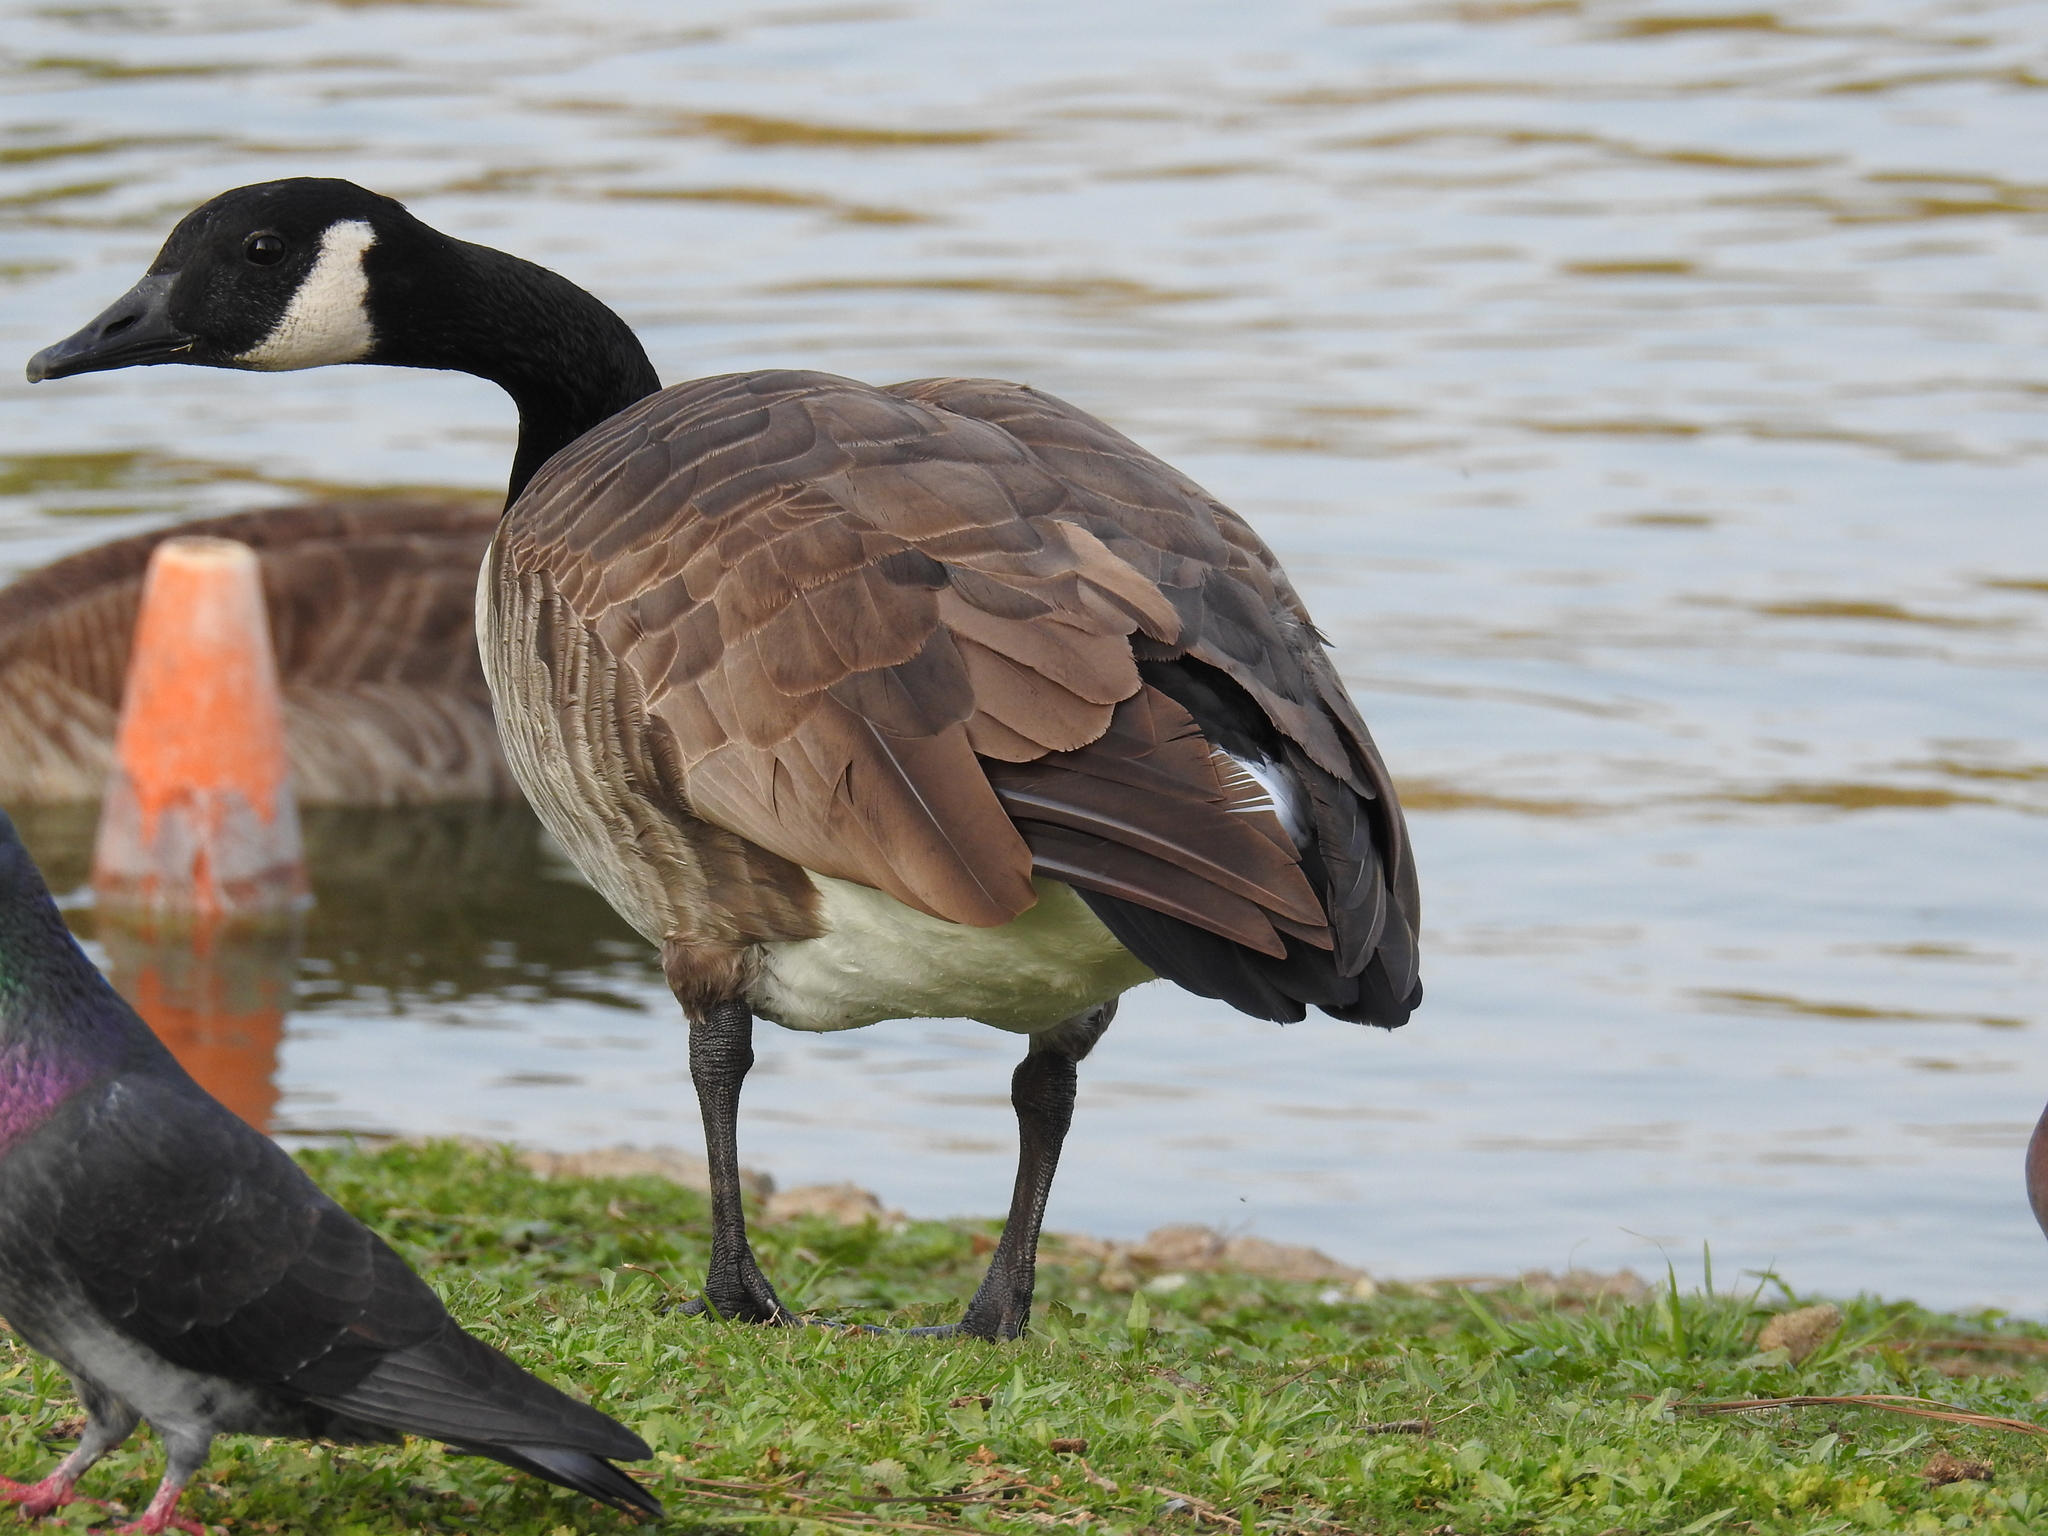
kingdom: Animalia
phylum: Chordata
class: Aves
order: Anseriformes
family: Anatidae
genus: Branta
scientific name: Branta canadensis
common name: Canada goose
